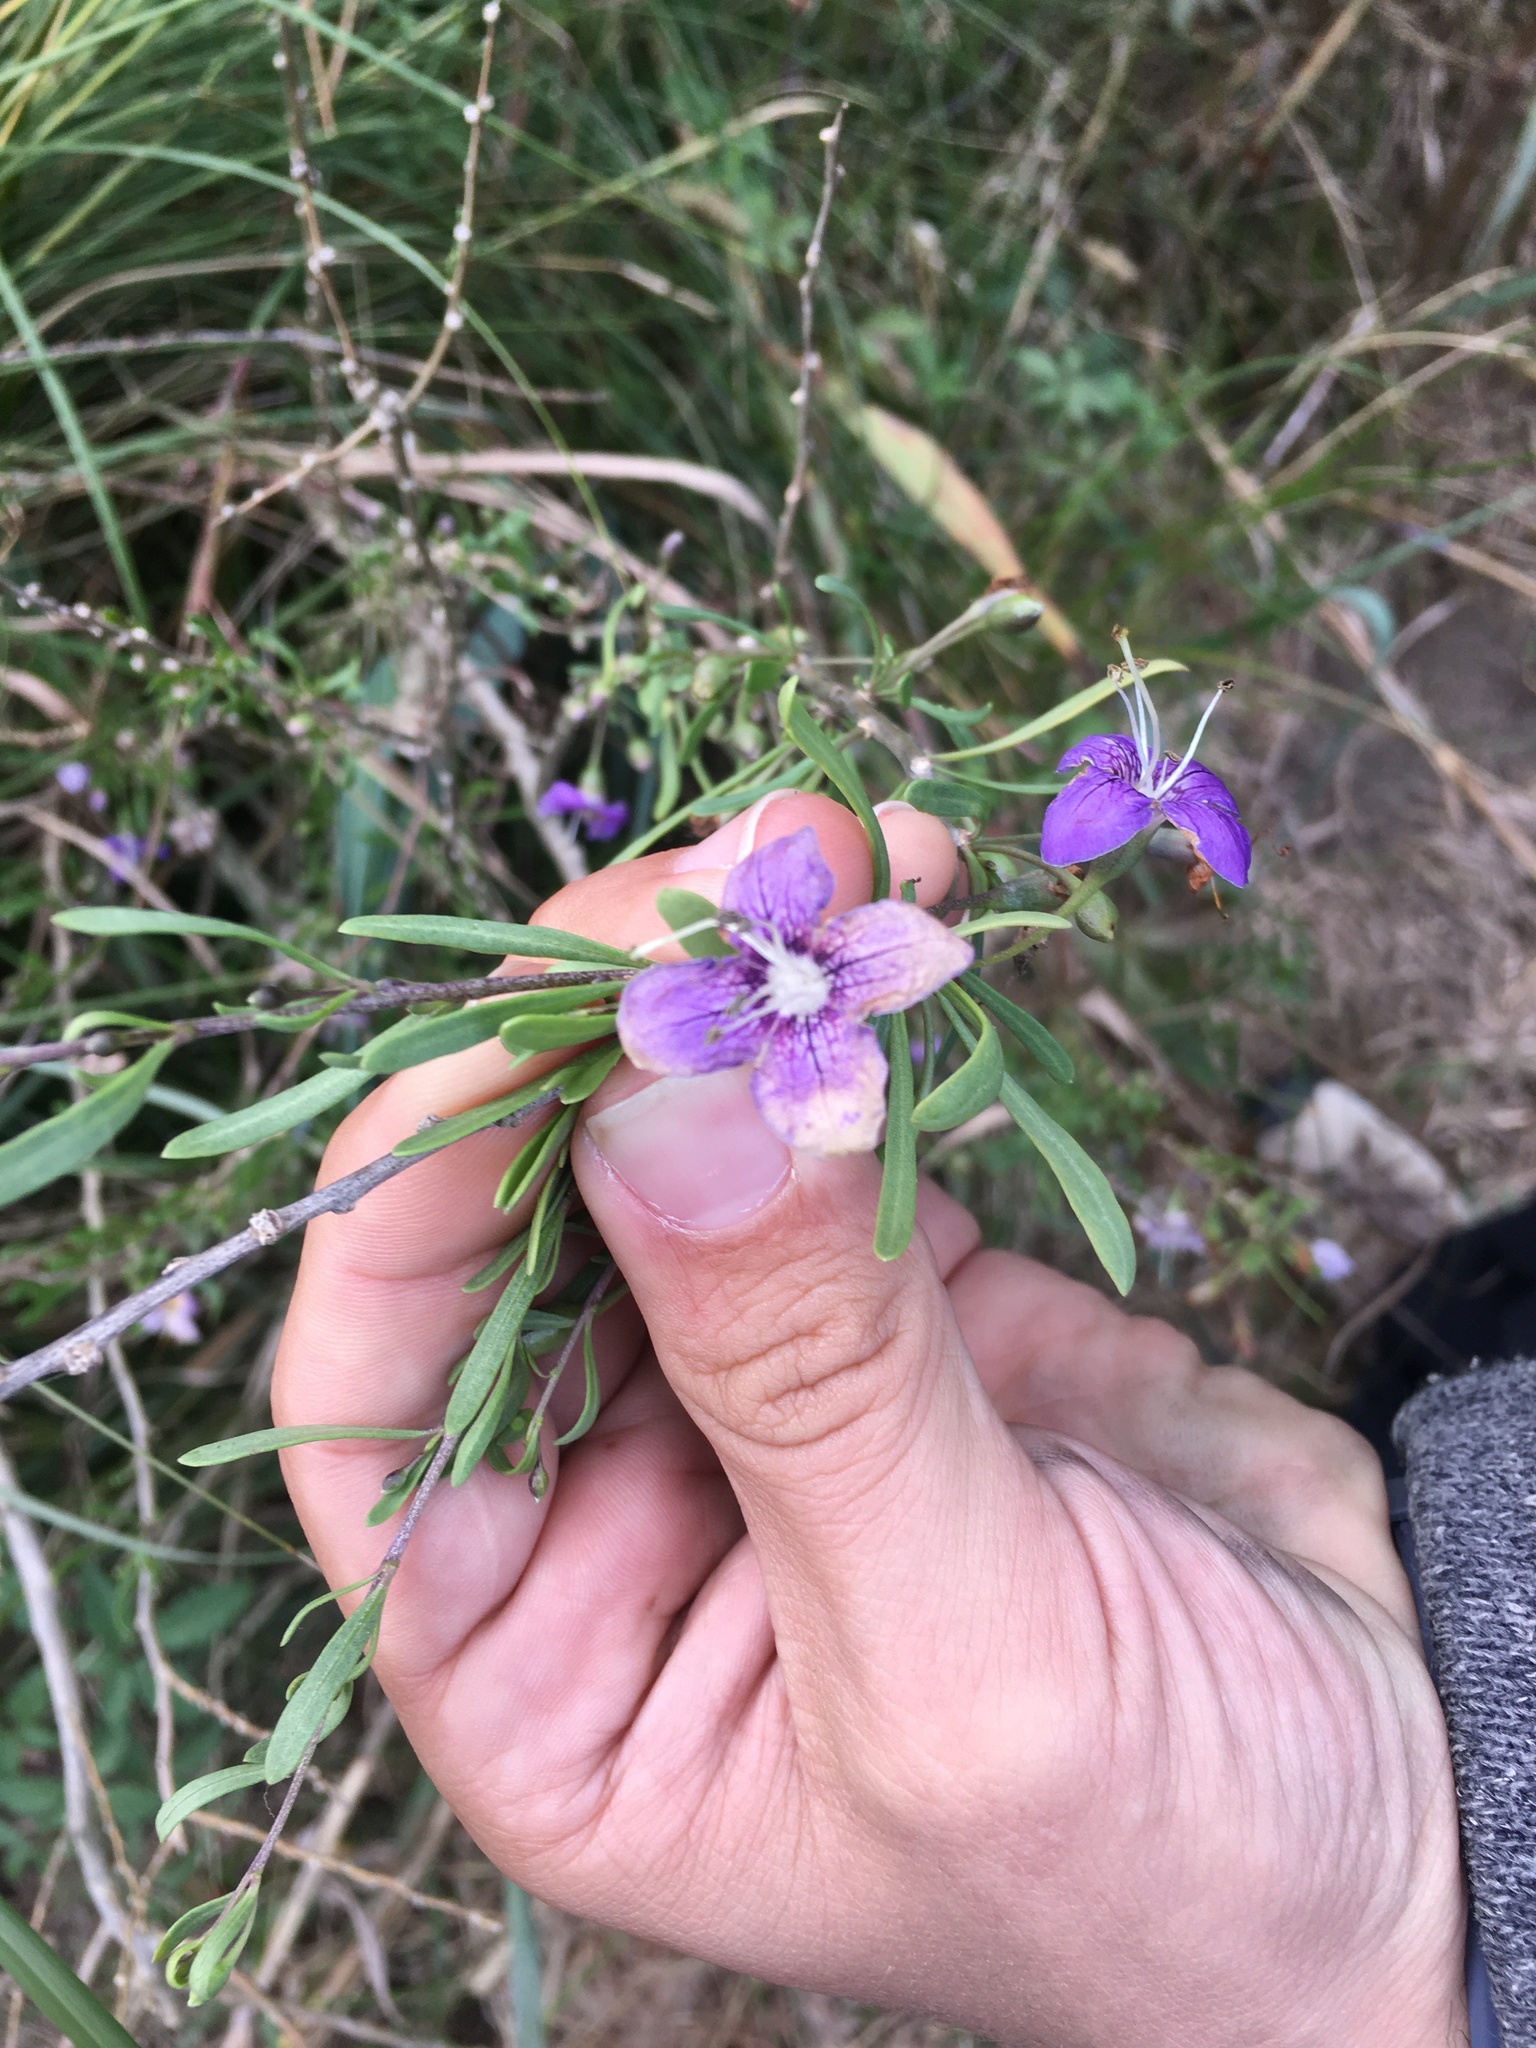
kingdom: Plantae
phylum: Tracheophyta
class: Magnoliopsida
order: Solanales
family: Solanaceae
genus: Lycium
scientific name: Lycium carolinianum
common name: Christmasberry
